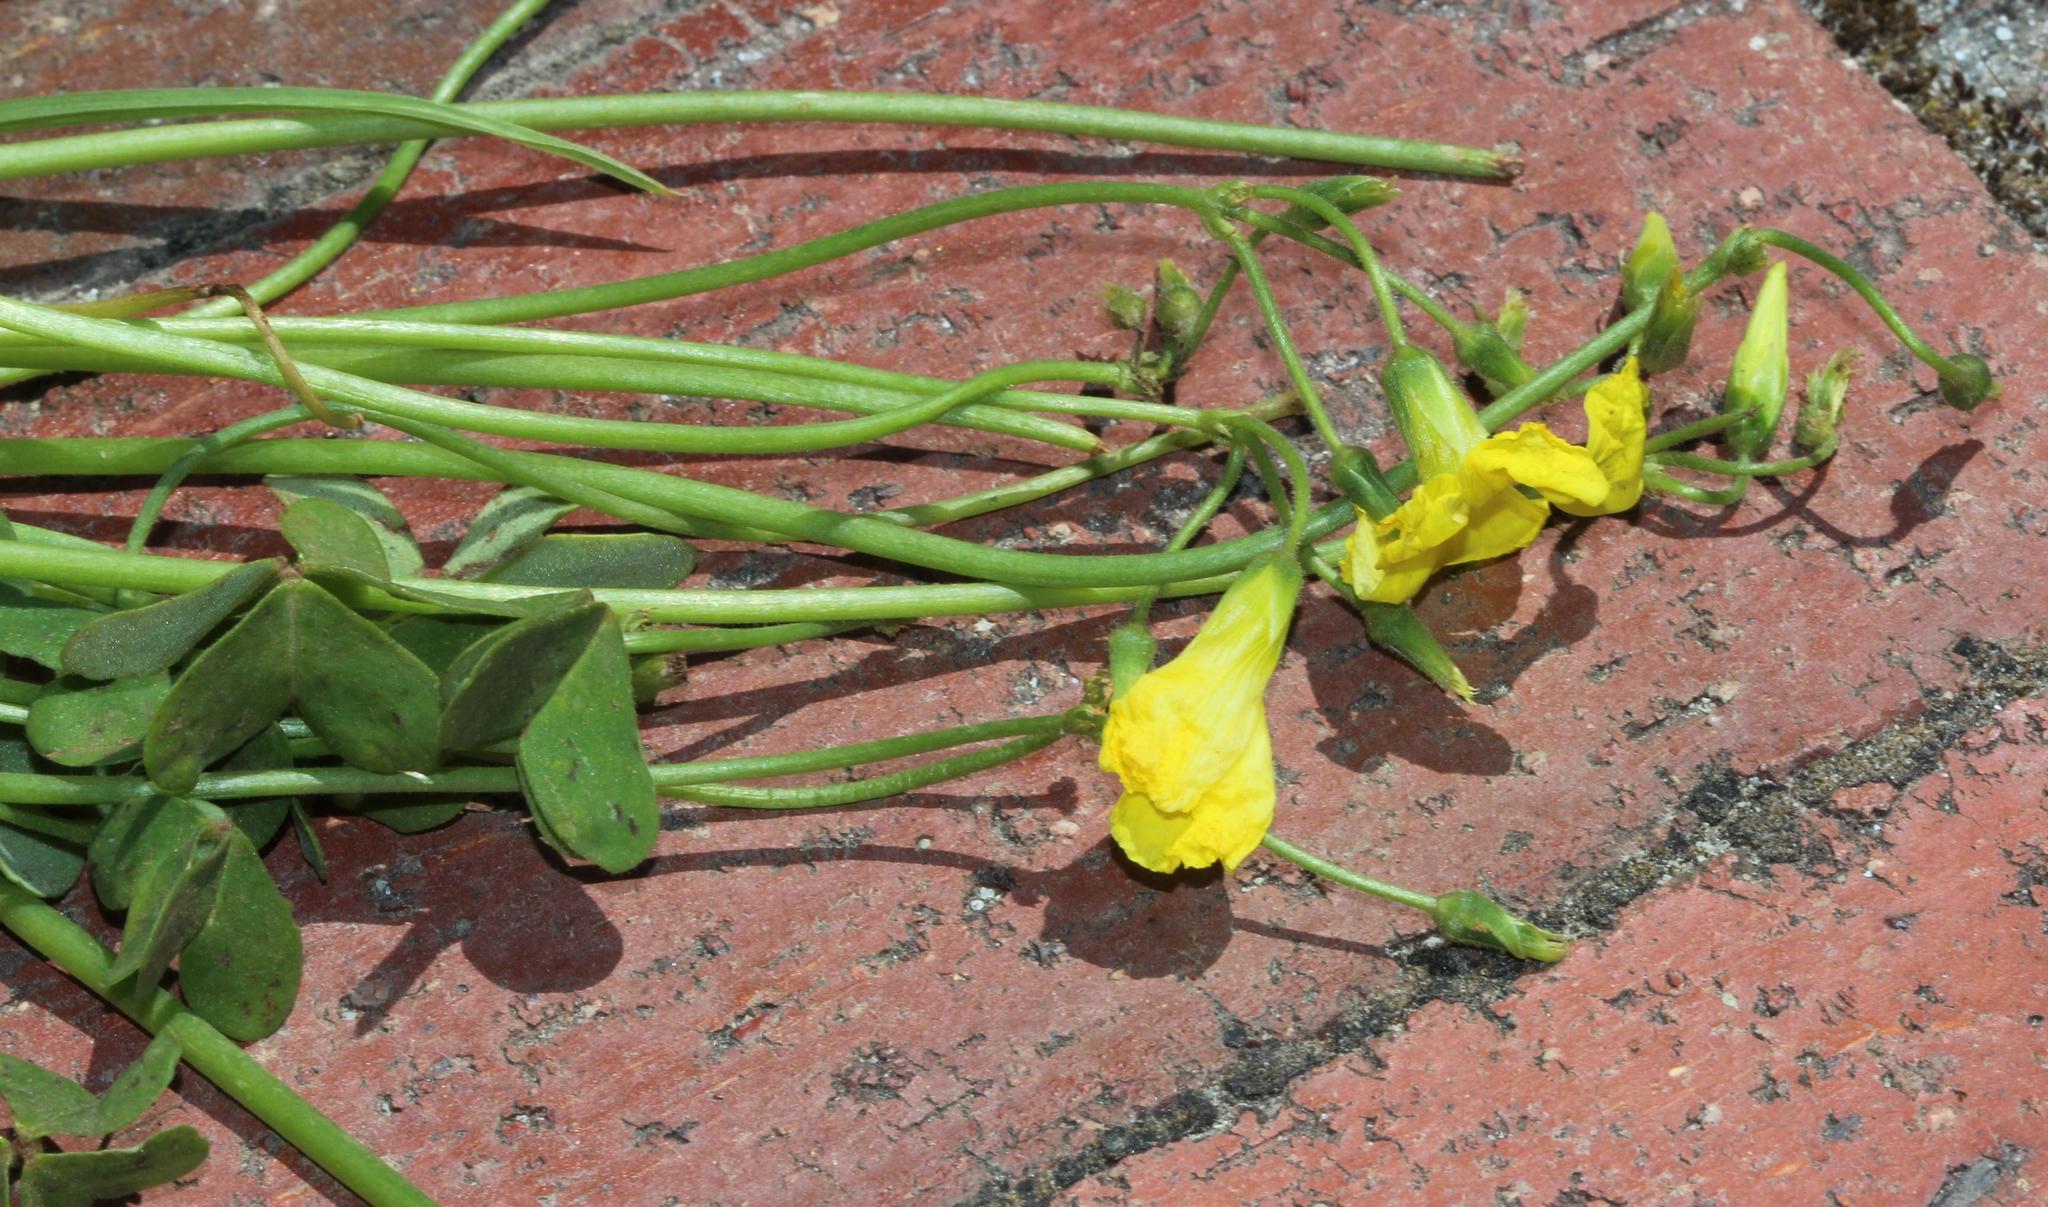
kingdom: Plantae
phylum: Tracheophyta
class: Magnoliopsida
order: Oxalidales
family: Oxalidaceae
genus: Oxalis
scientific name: Oxalis pes-caprae
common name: Bermuda-buttercup
